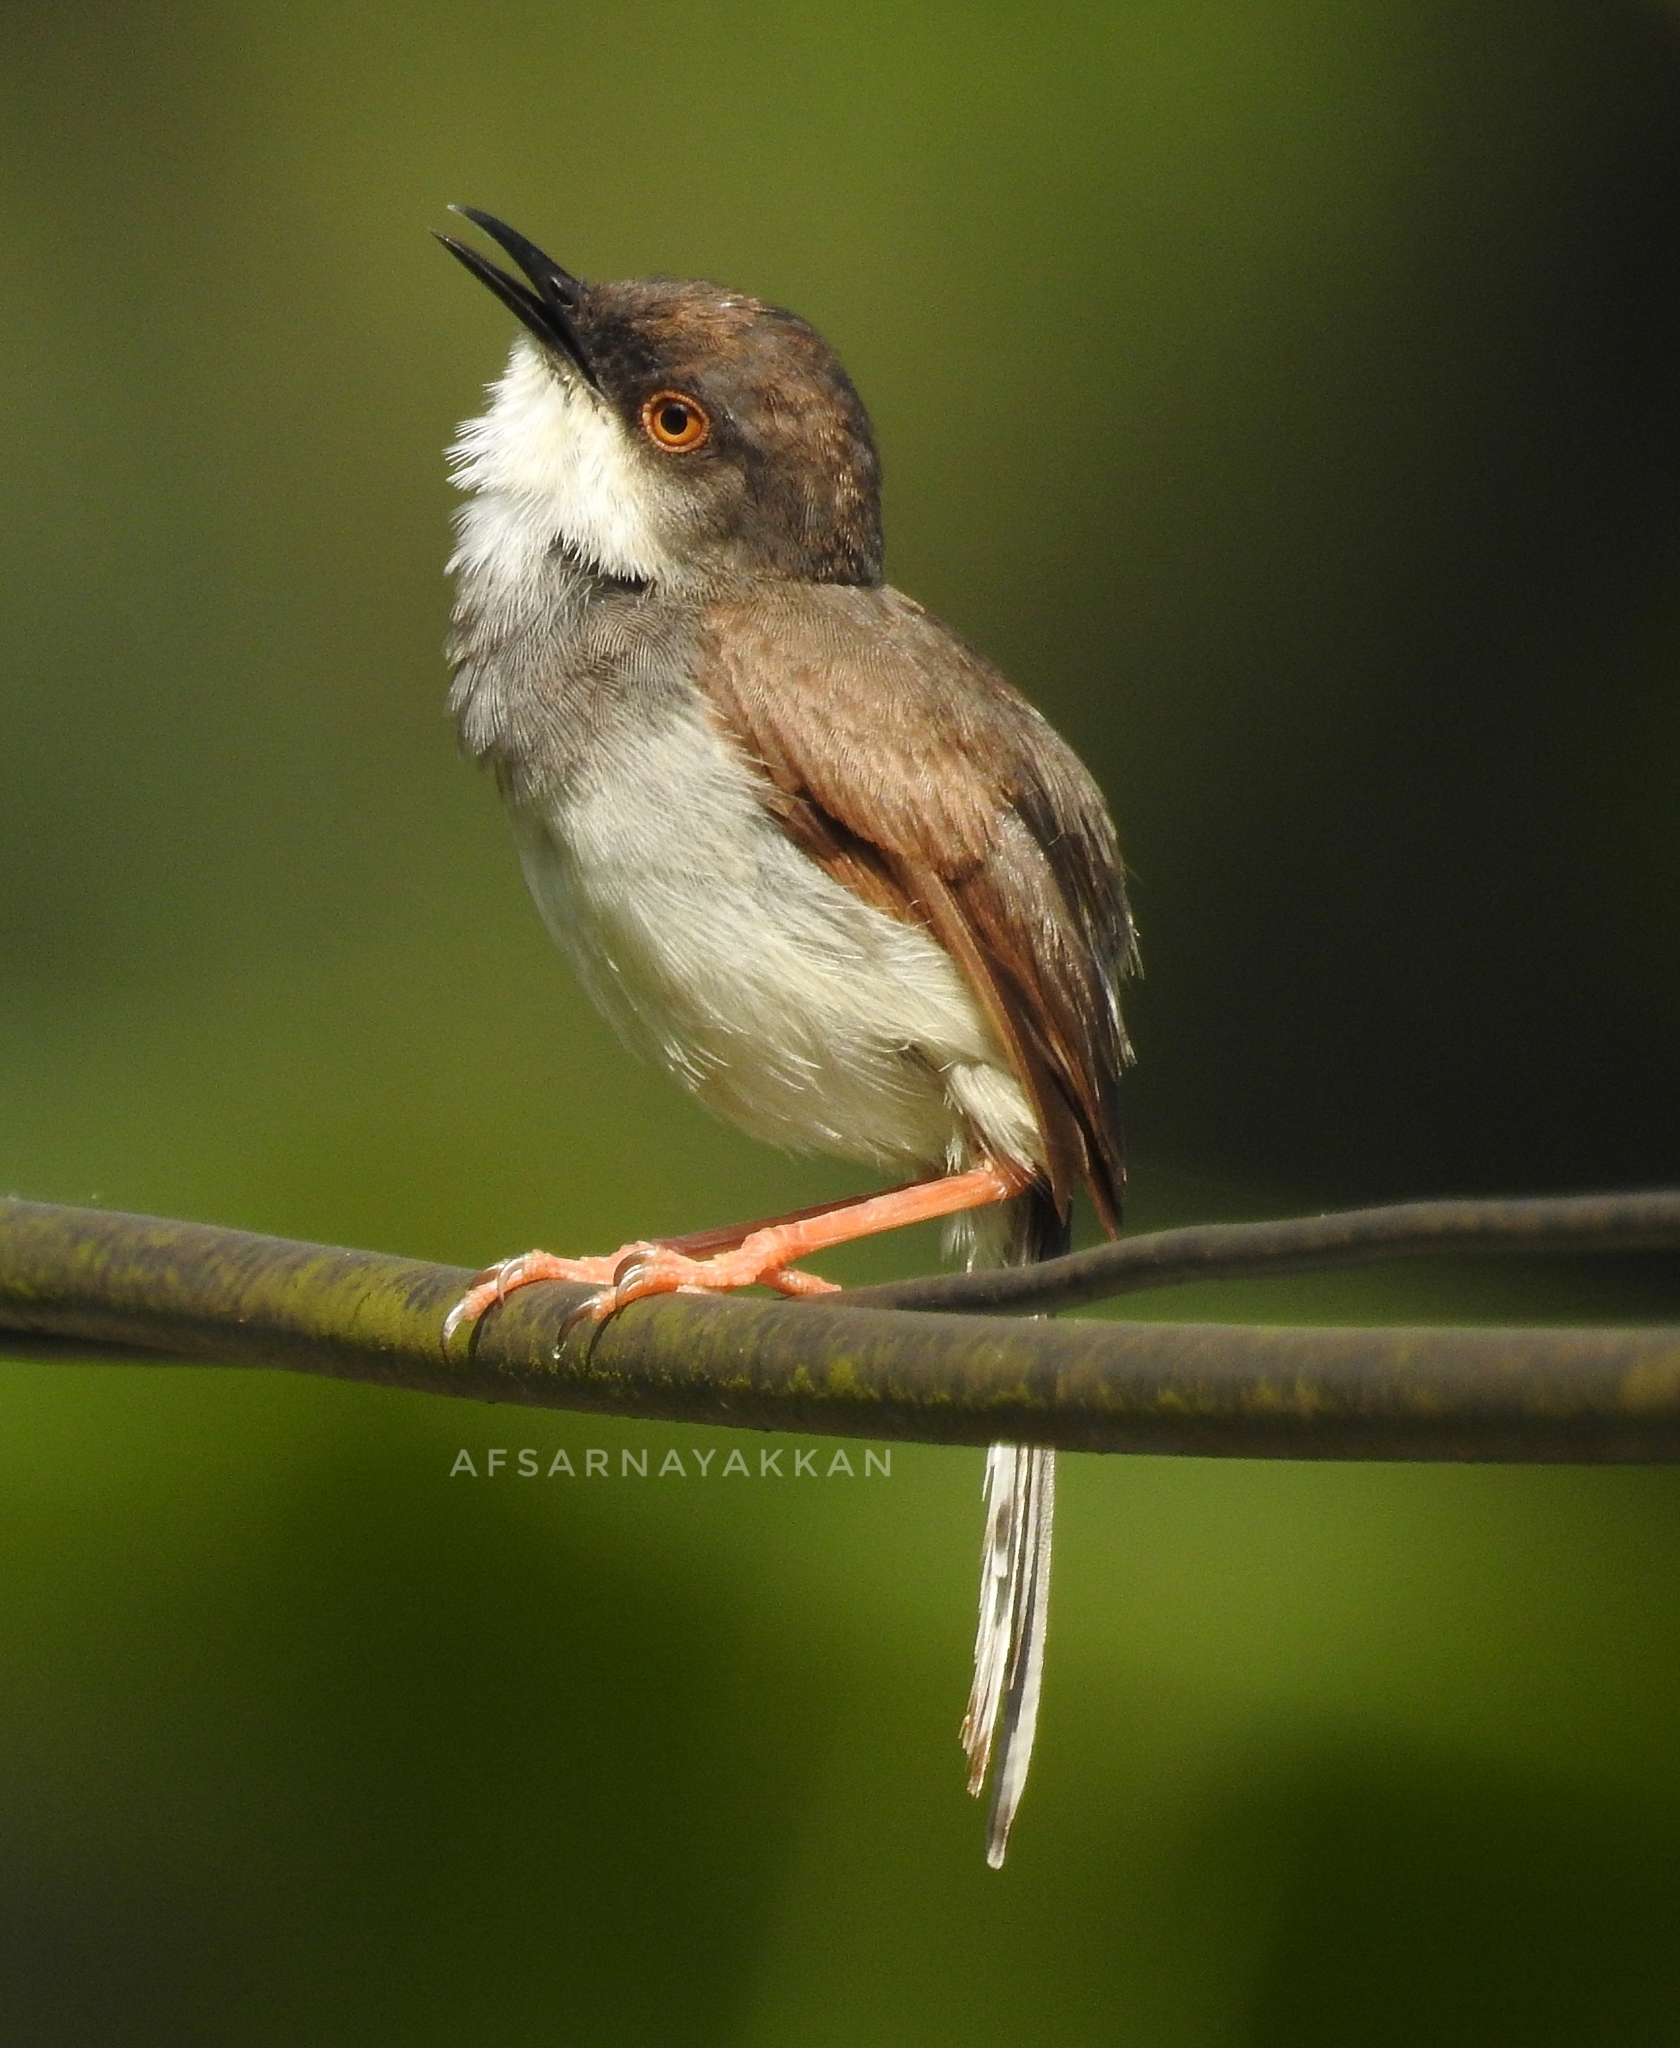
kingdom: Animalia
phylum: Chordata
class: Aves
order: Passeriformes
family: Cisticolidae
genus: Prinia
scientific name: Prinia hodgsonii
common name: Grey-breasted prinia
